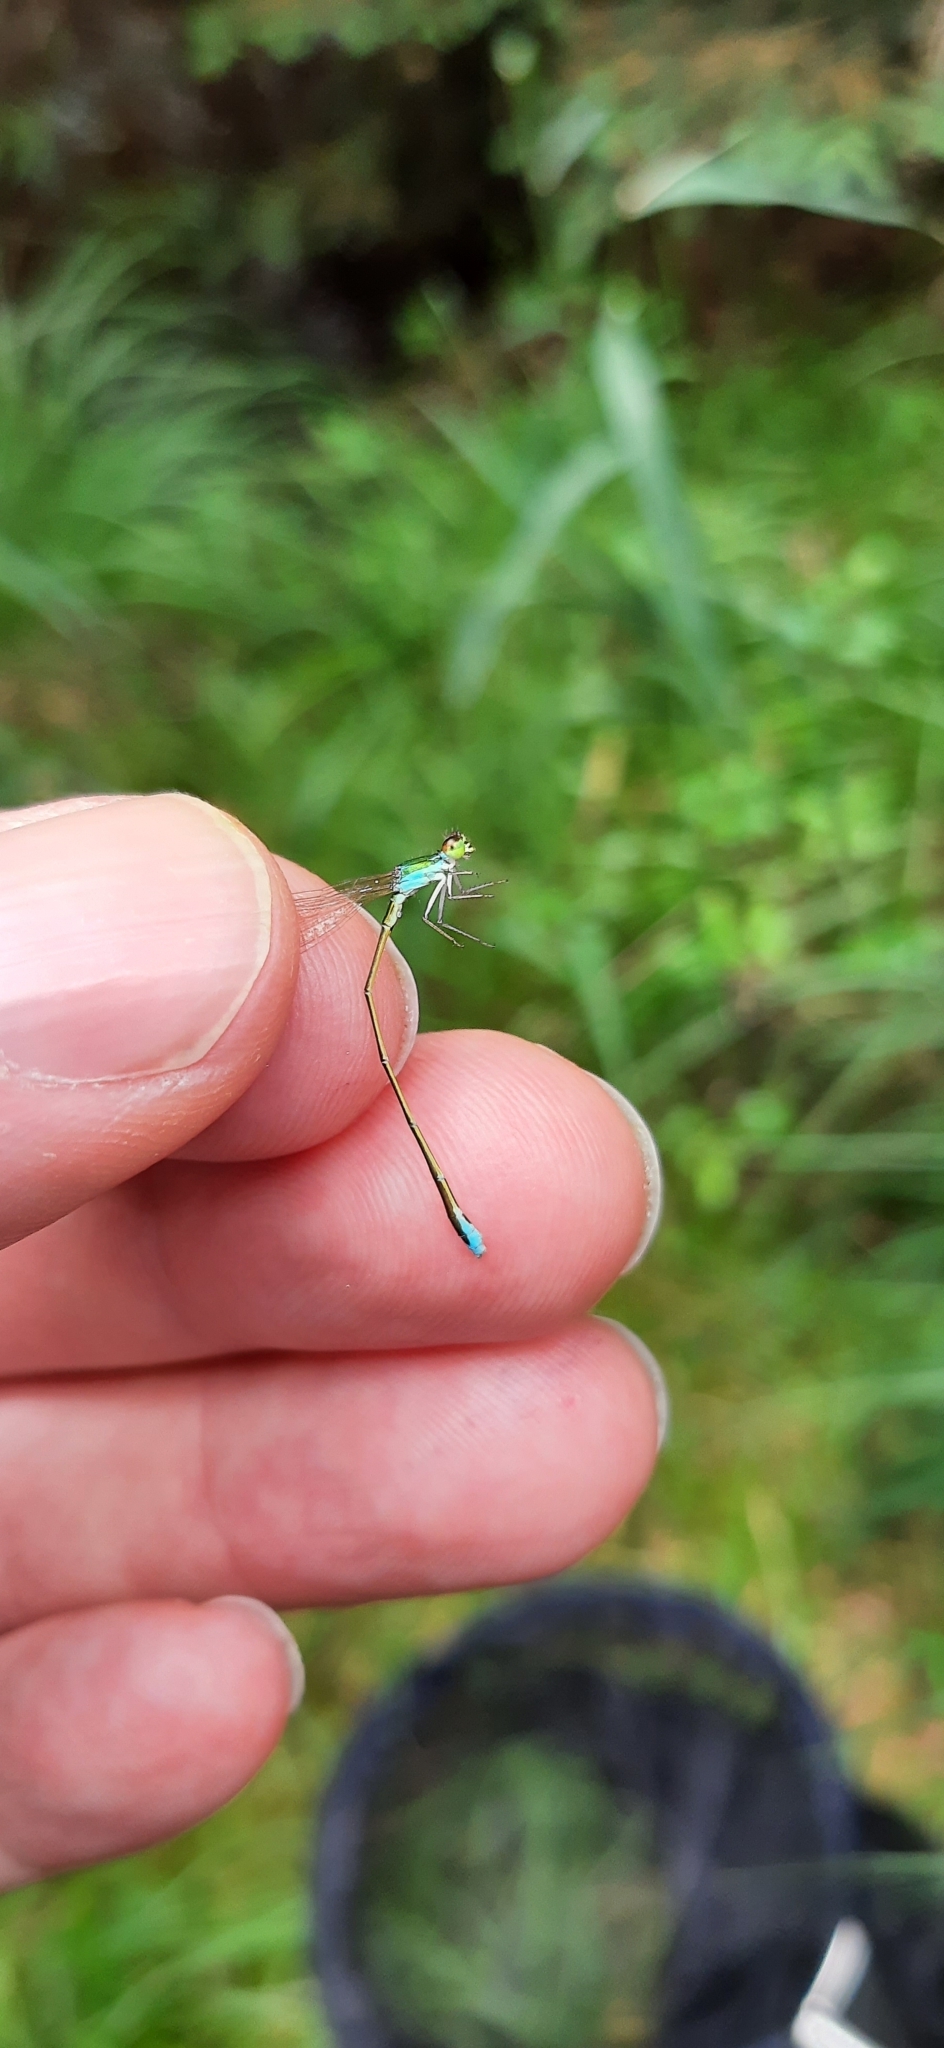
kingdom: Animalia
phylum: Arthropoda
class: Insecta
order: Odonata
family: Coenagrionidae
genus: Nehalennia
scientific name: Nehalennia speciosa
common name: Sedgling
